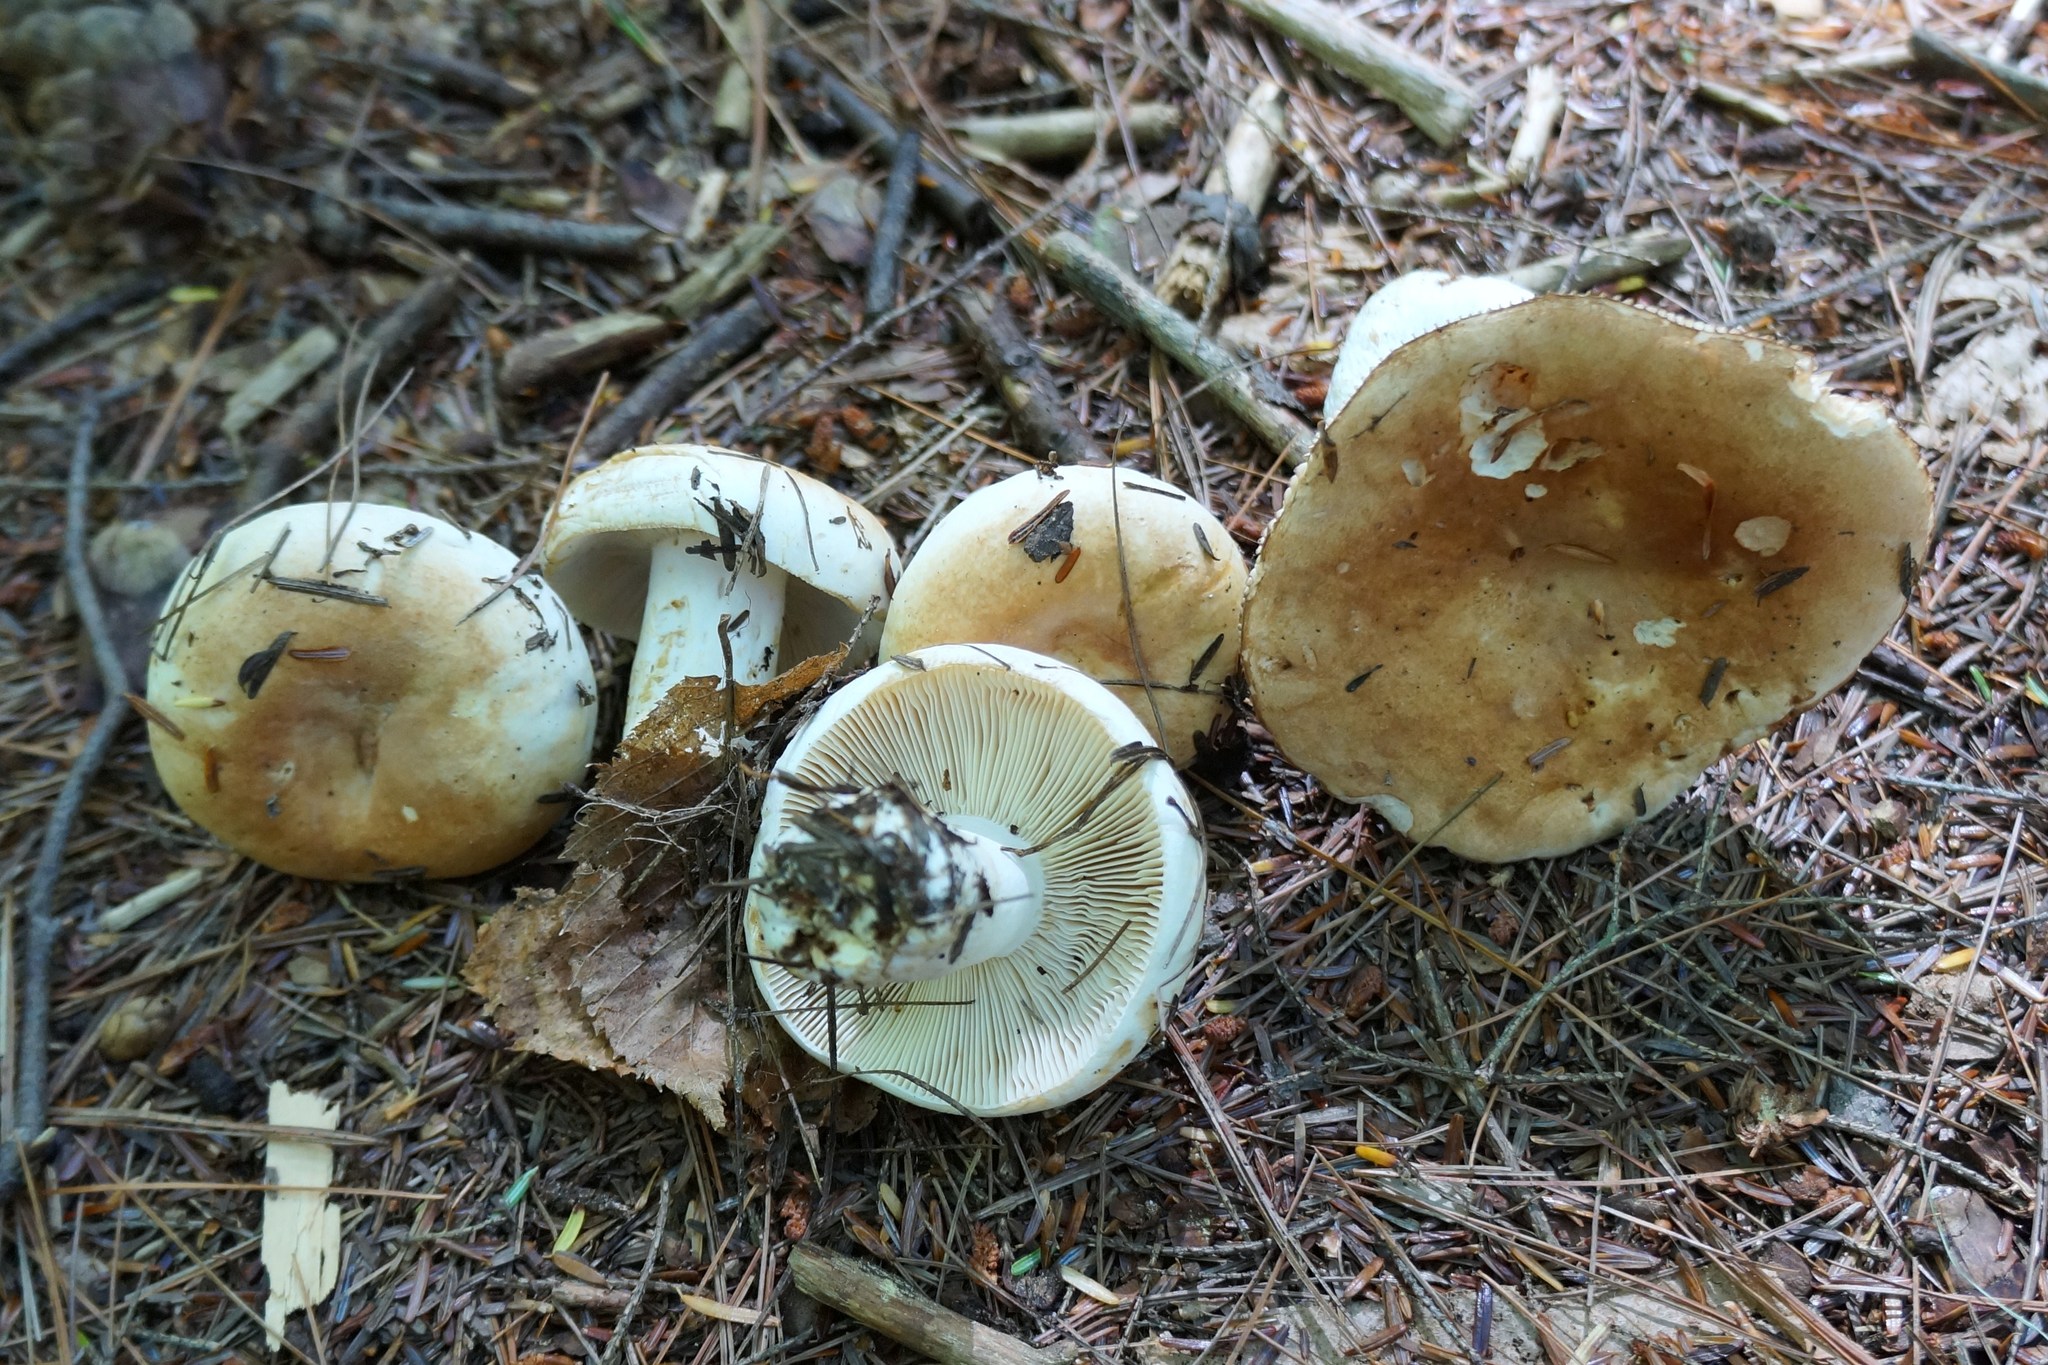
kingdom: Fungi
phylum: Basidiomycota
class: Agaricomycetes
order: Russulales
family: Russulaceae
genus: Russula
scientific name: Russula compacta
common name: Fishbiscuit russula
